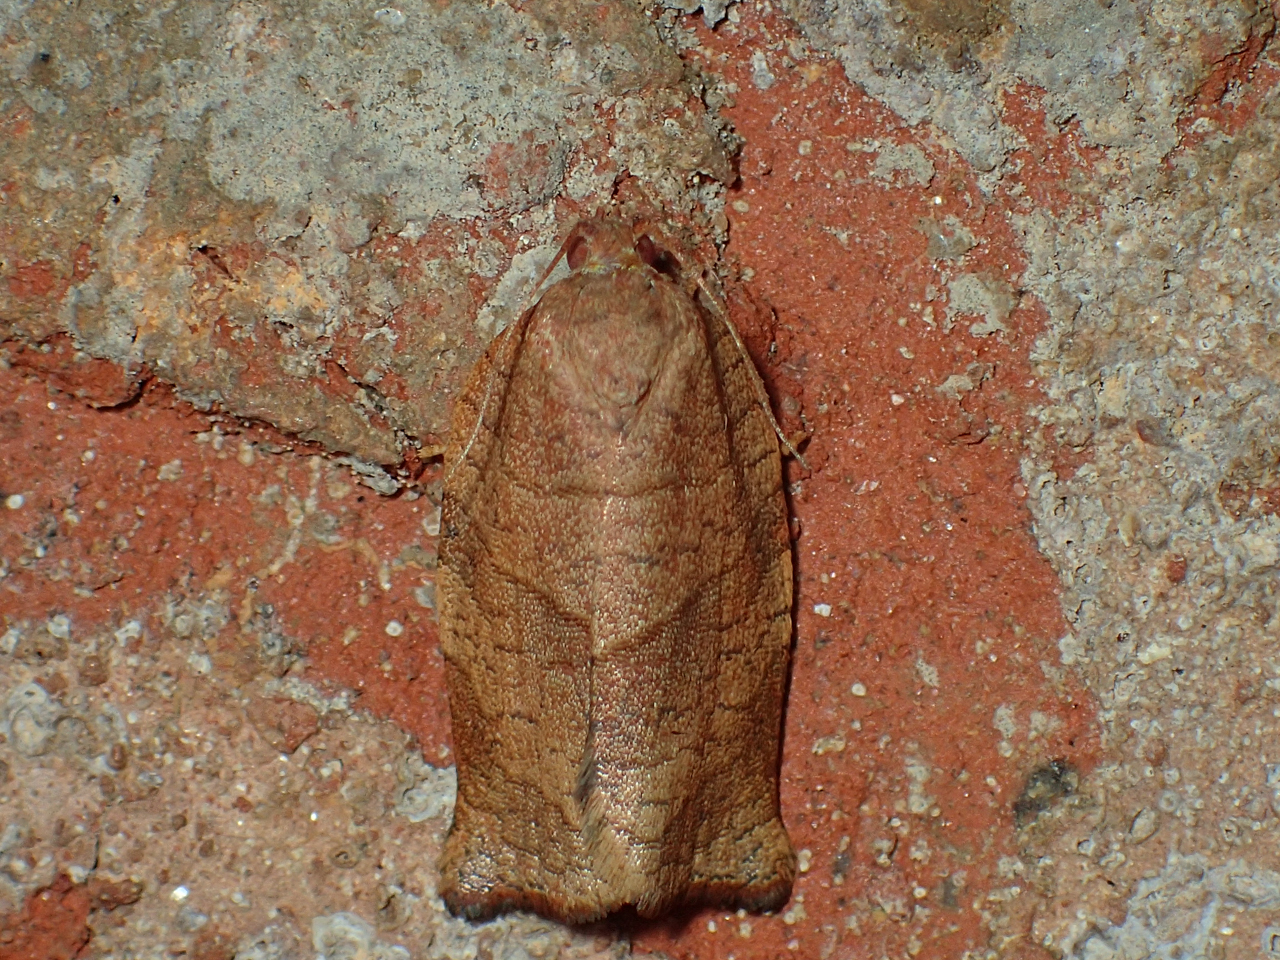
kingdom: Animalia
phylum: Arthropoda
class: Insecta
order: Lepidoptera
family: Tortricidae
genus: Choristoneura
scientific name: Choristoneura rosaceana
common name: Oblique-banded leafroller moth
